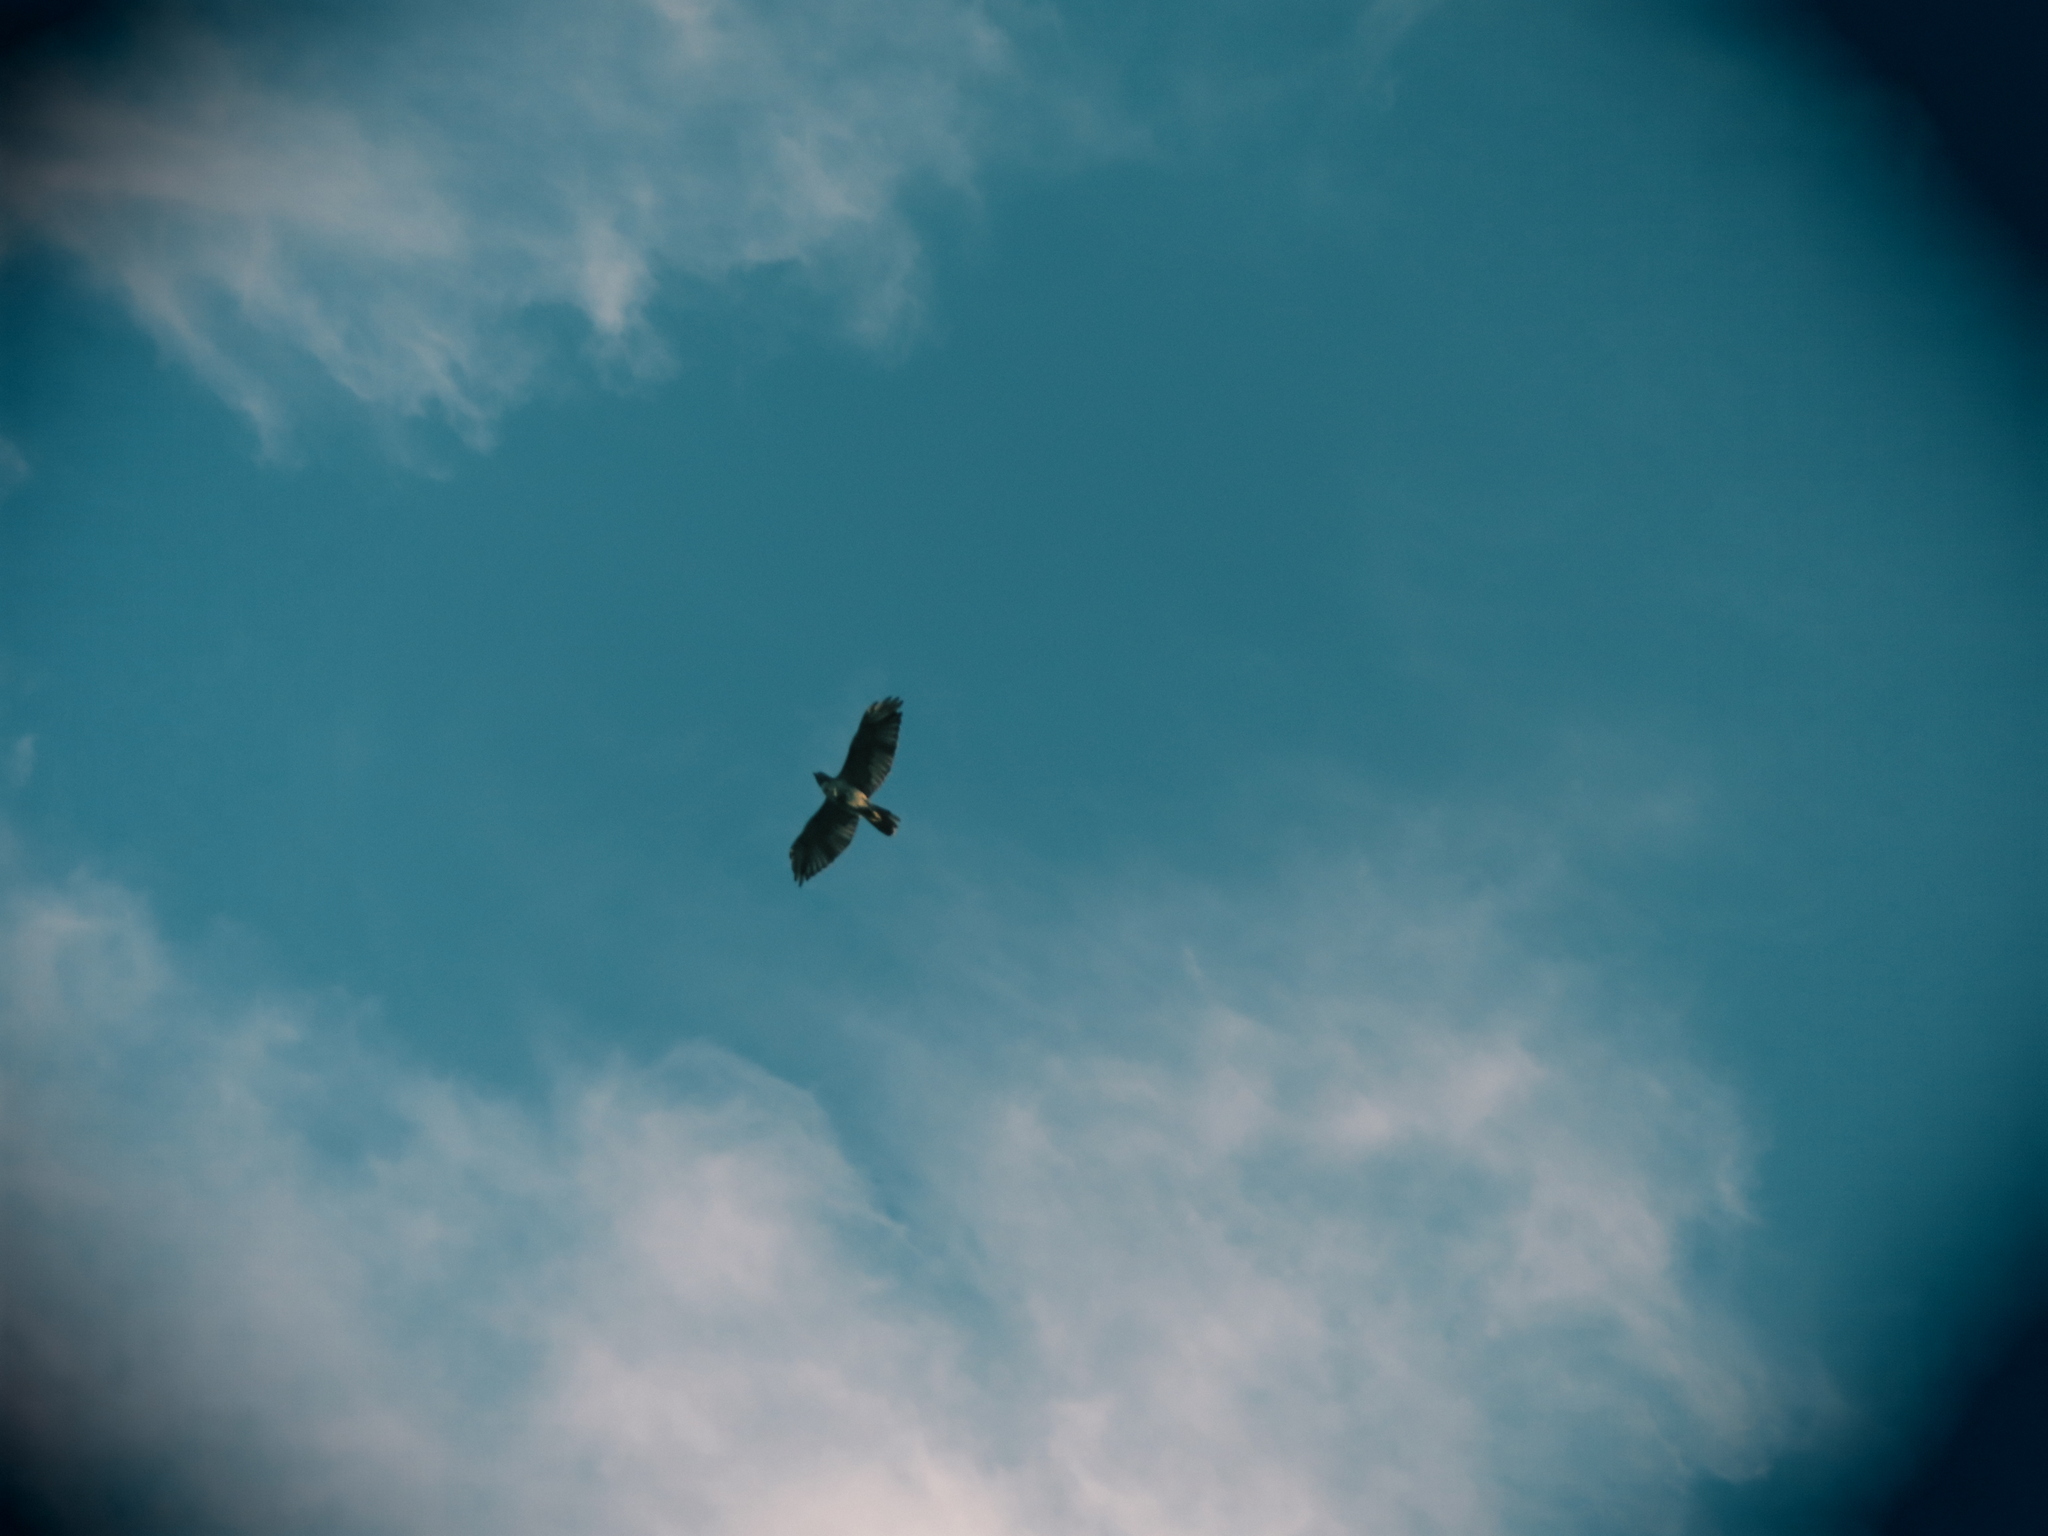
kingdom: Animalia
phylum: Chordata
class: Aves
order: Accipitriformes
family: Accipitridae
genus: Buteo
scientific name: Buteo jamaicensis
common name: Red-tailed hawk
